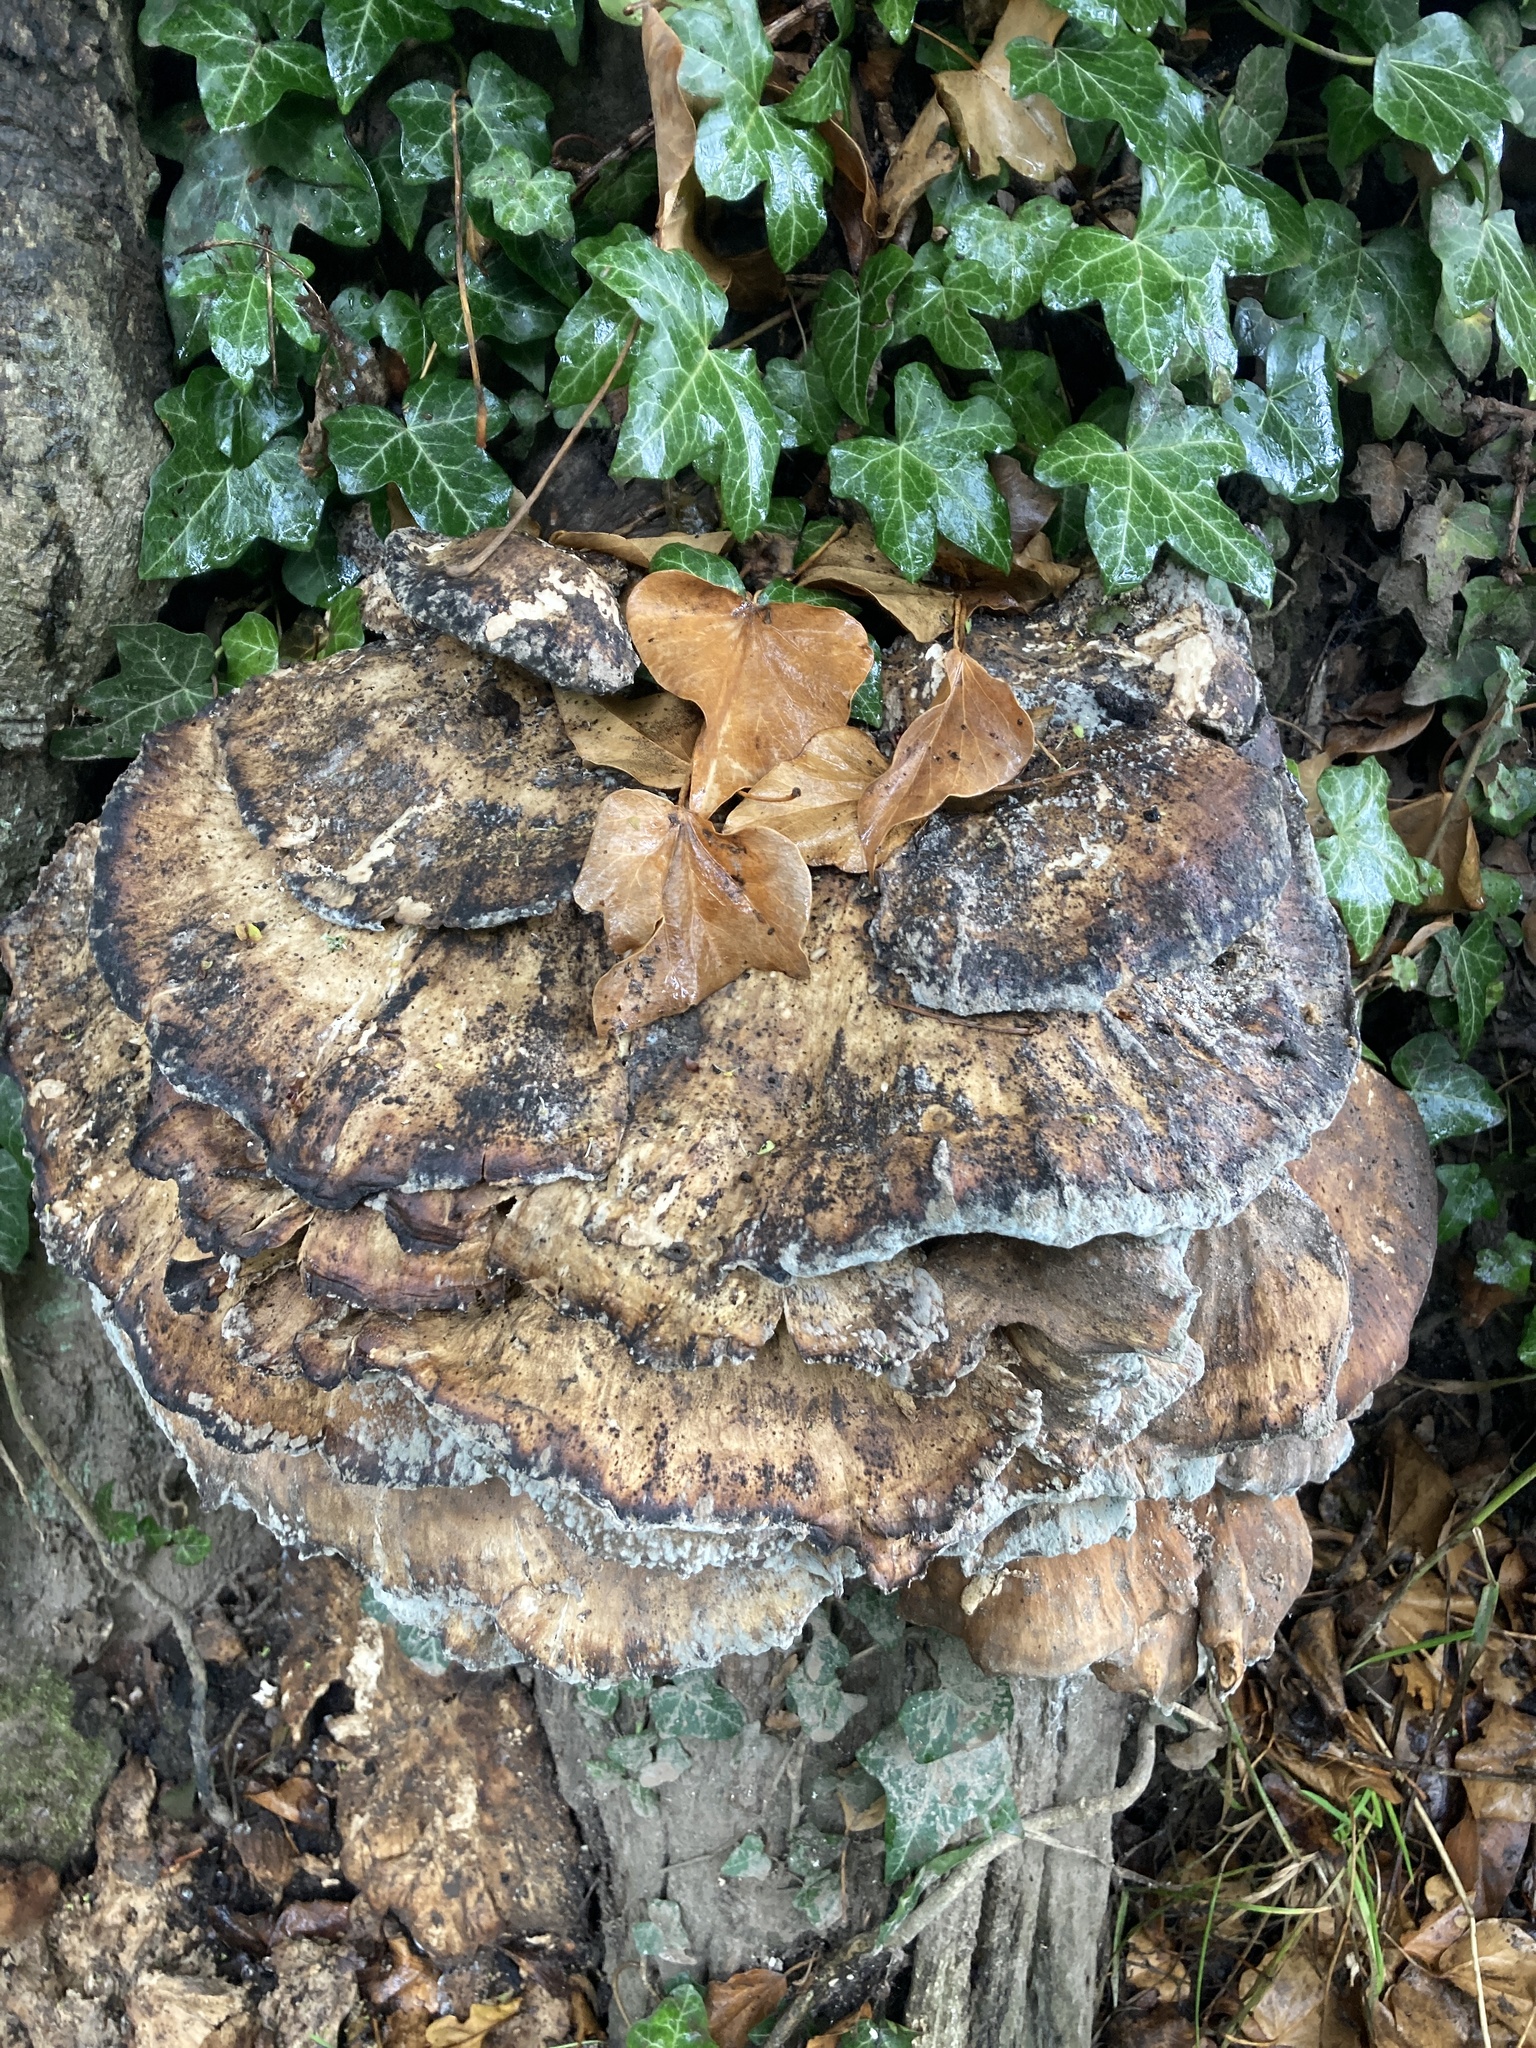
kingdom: Fungi
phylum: Basidiomycota
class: Agaricomycetes
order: Polyporales
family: Meripilaceae
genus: Meripilus
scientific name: Meripilus giganteus
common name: Giant polypore
